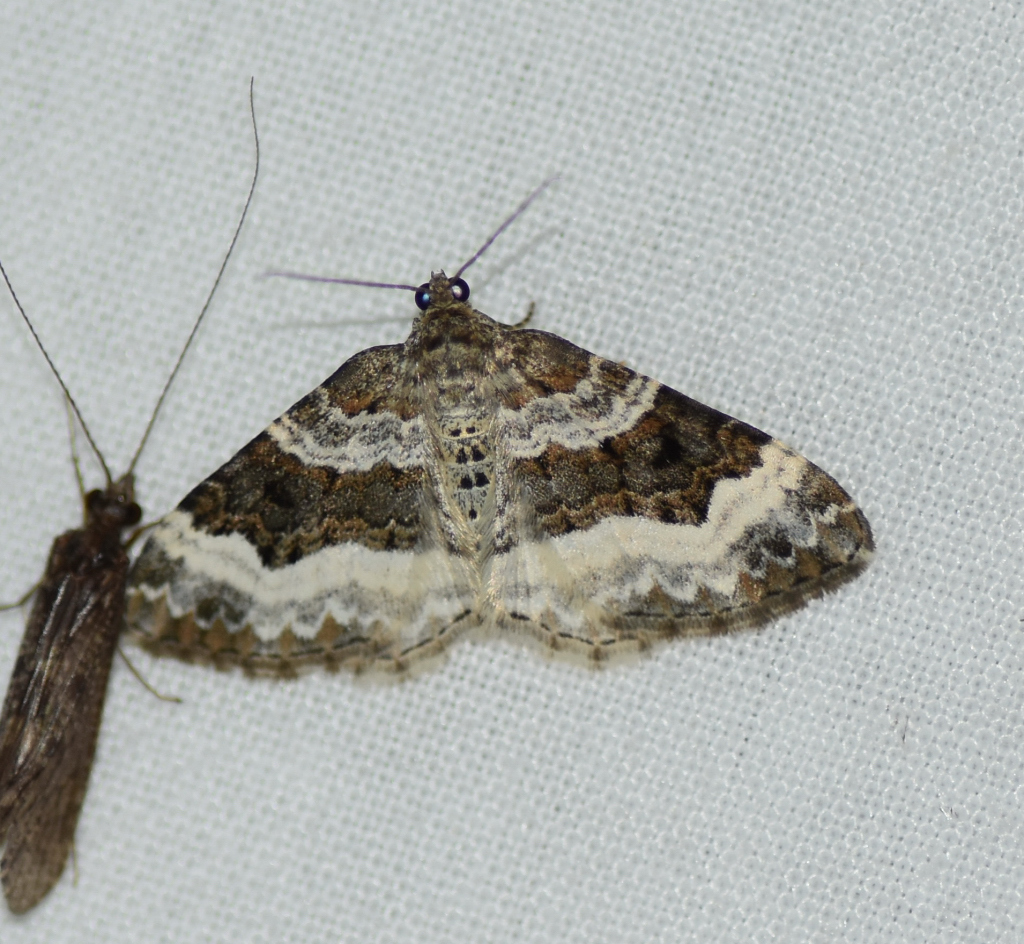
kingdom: Animalia
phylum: Arthropoda
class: Insecta
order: Lepidoptera
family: Geometridae
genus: Epirrhoe
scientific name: Epirrhoe alternata
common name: Common carpet
